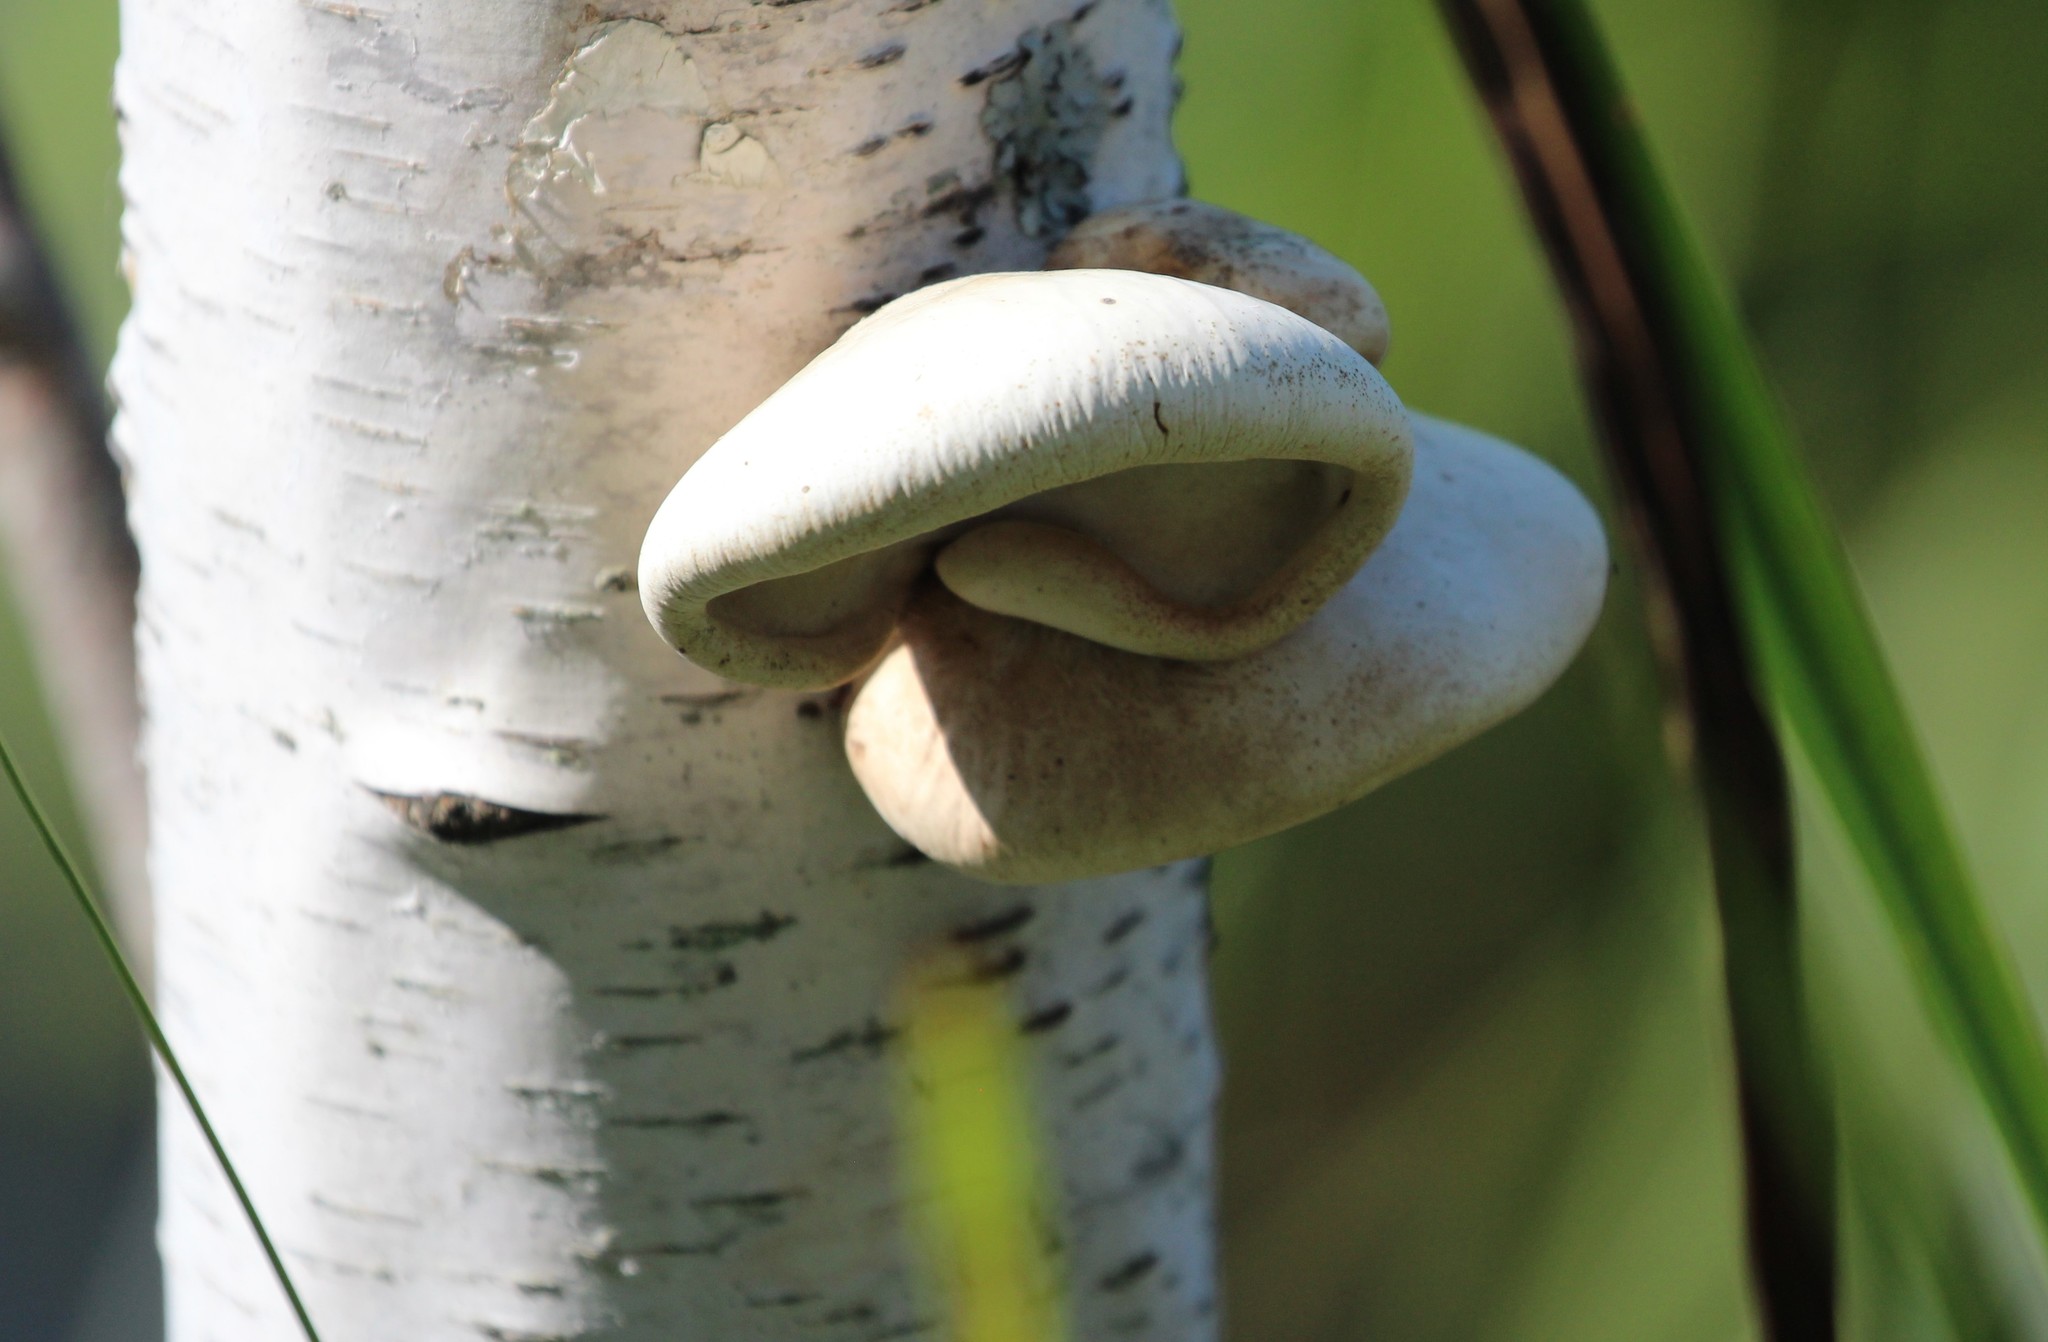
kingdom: Fungi
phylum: Basidiomycota
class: Agaricomycetes
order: Polyporales
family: Fomitopsidaceae
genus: Fomitopsis
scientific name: Fomitopsis betulina
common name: Birch polypore
